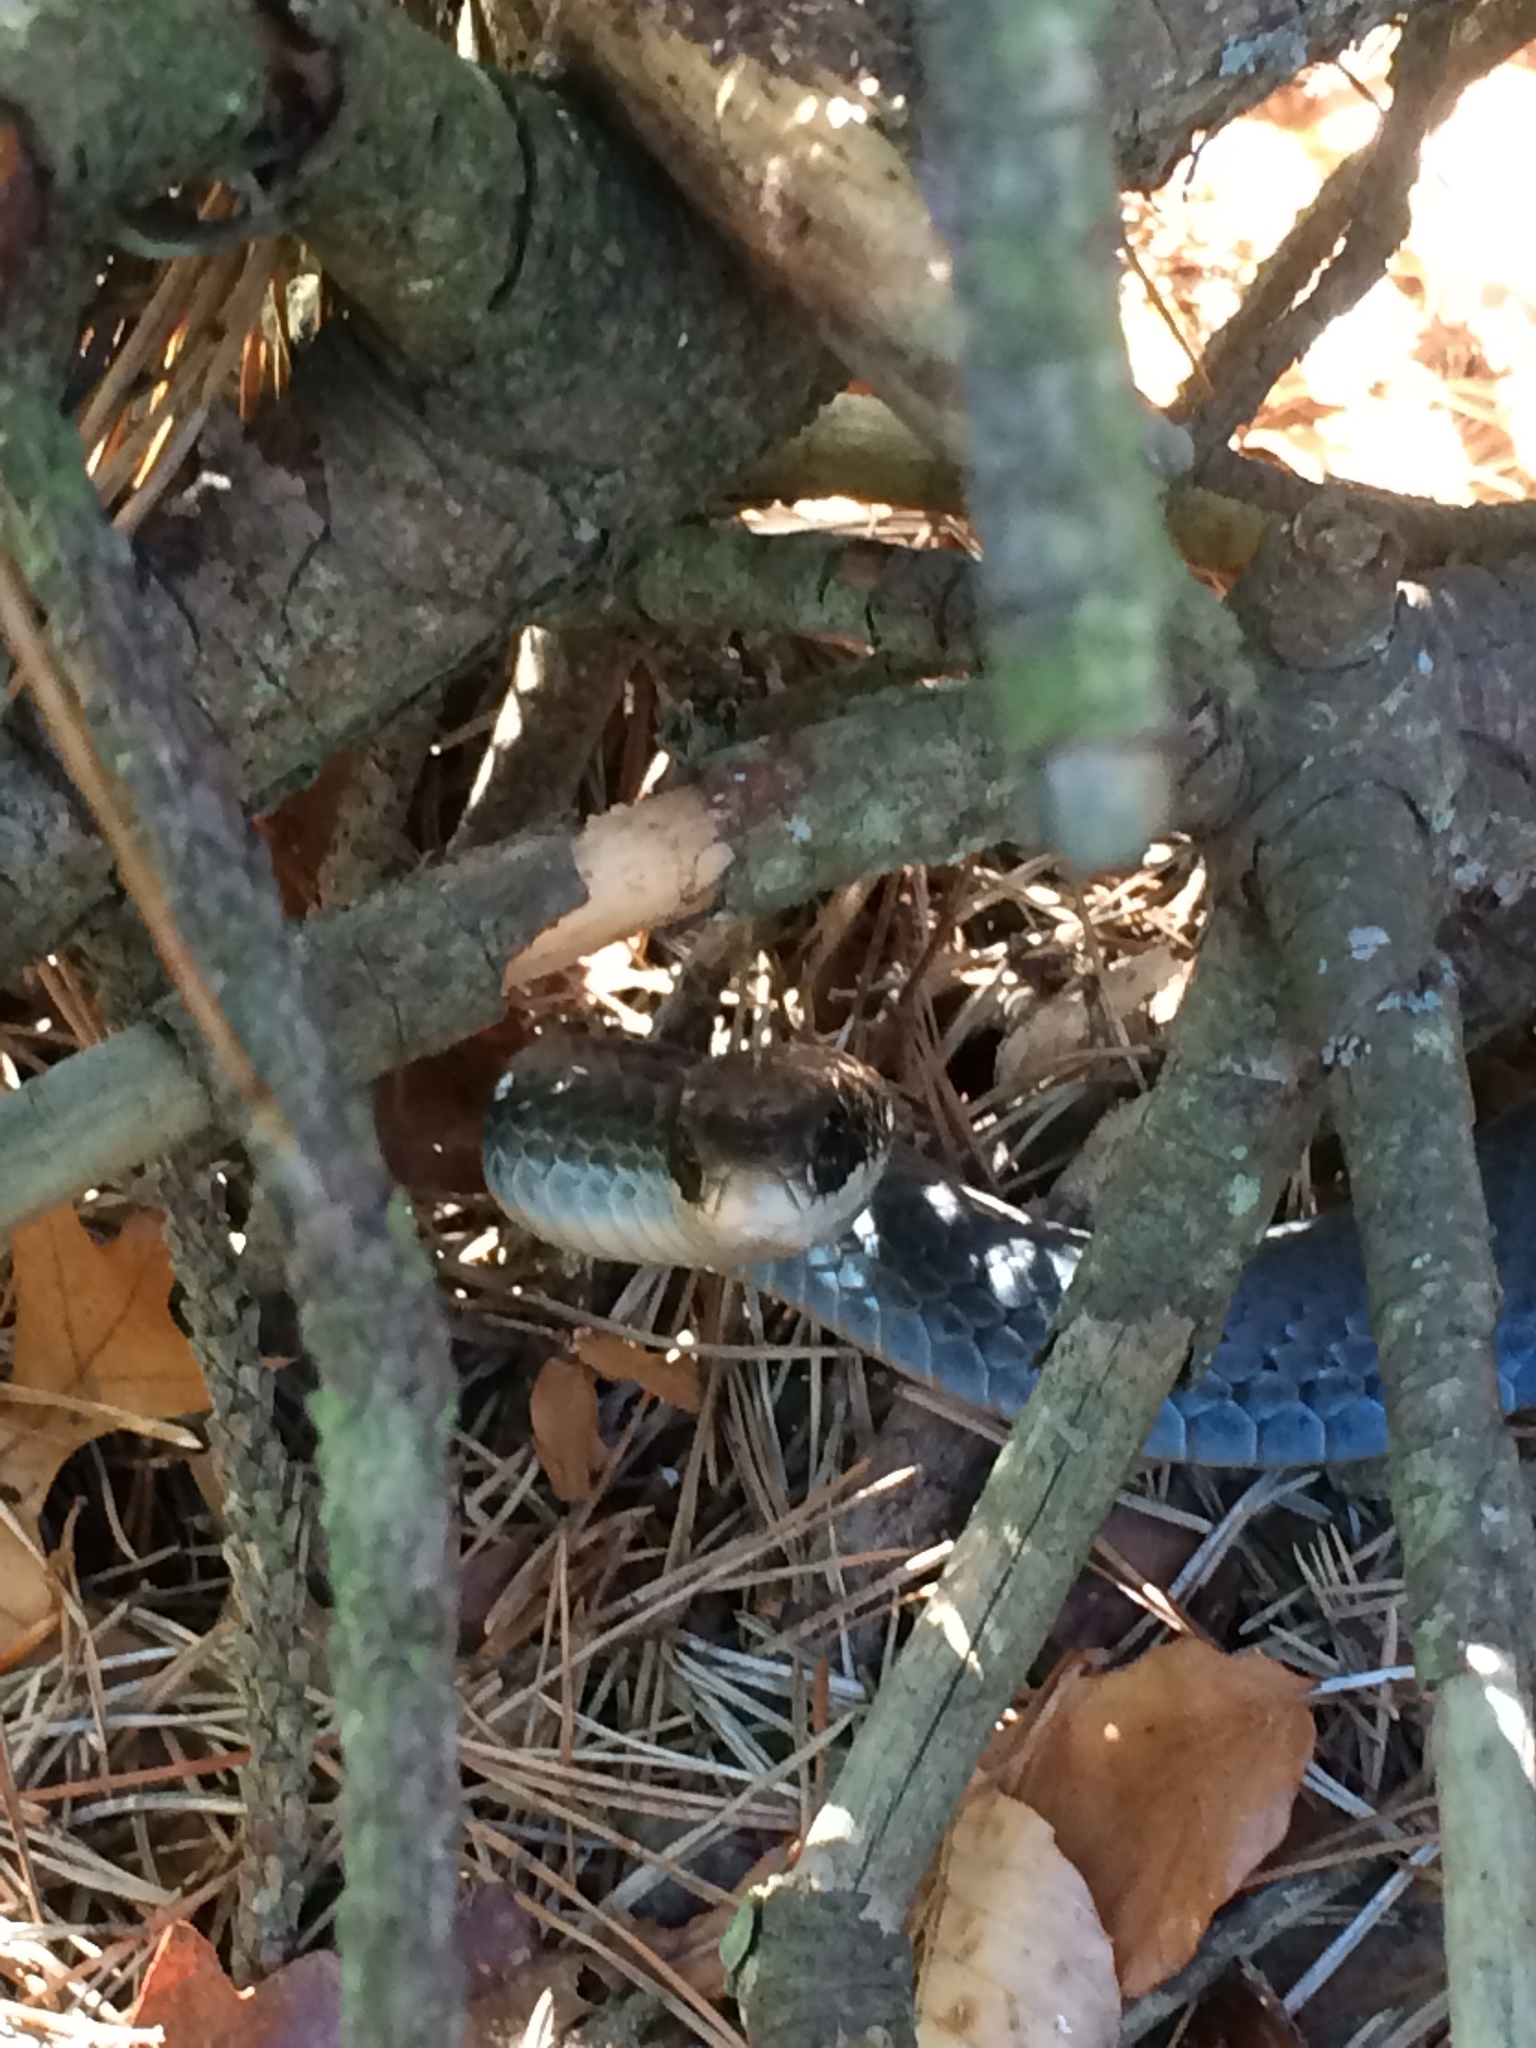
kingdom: Animalia
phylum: Chordata
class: Squamata
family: Colubridae
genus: Coluber
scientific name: Coluber constrictor
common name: Eastern racer
